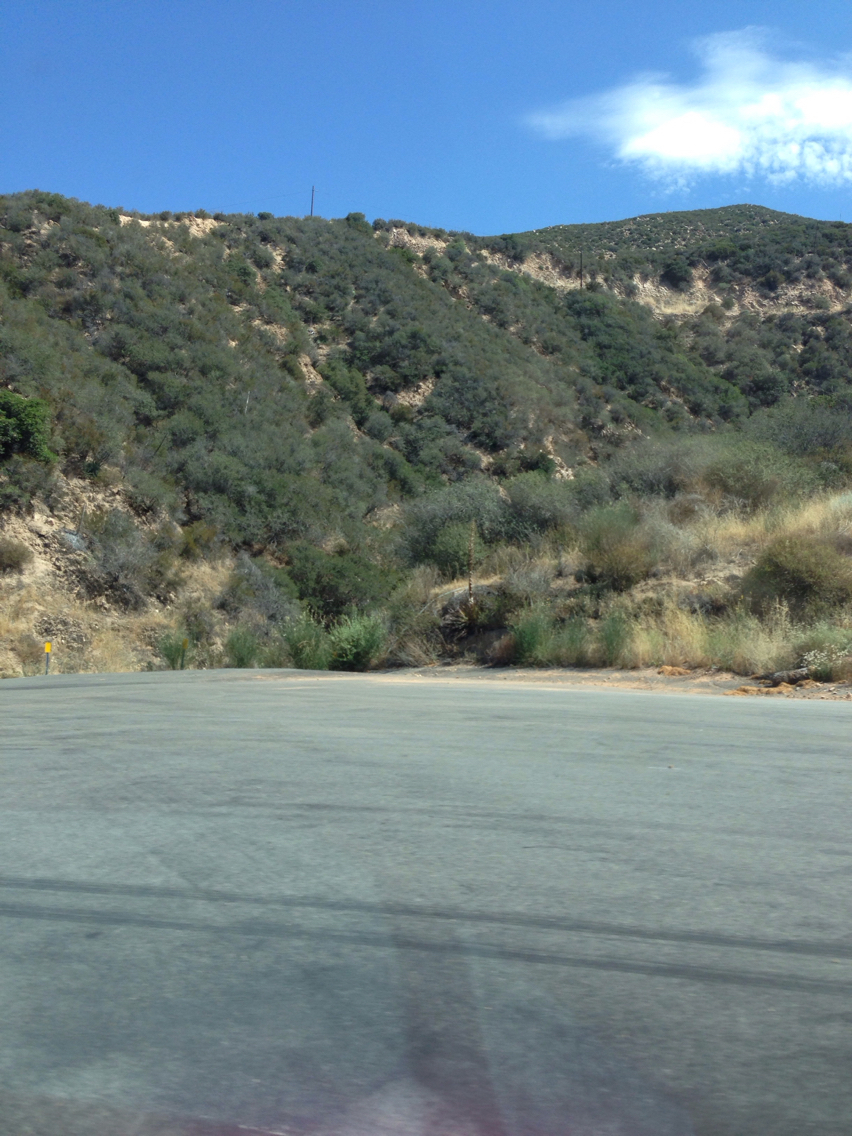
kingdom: Plantae
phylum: Tracheophyta
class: Liliopsida
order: Asparagales
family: Asparagaceae
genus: Hesperoyucca
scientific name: Hesperoyucca whipplei
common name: Our lord's-candle
